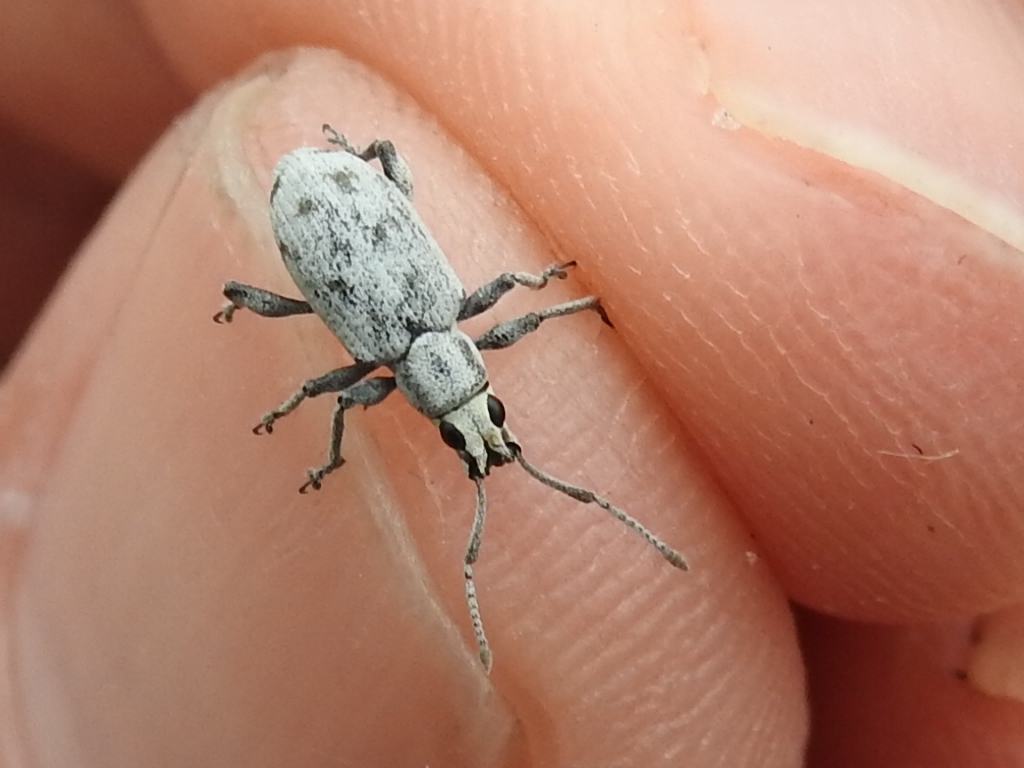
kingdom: Animalia
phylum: Arthropoda
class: Insecta
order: Coleoptera
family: Curculionidae
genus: Myllocerus
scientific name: Myllocerus undecimpustulatus
